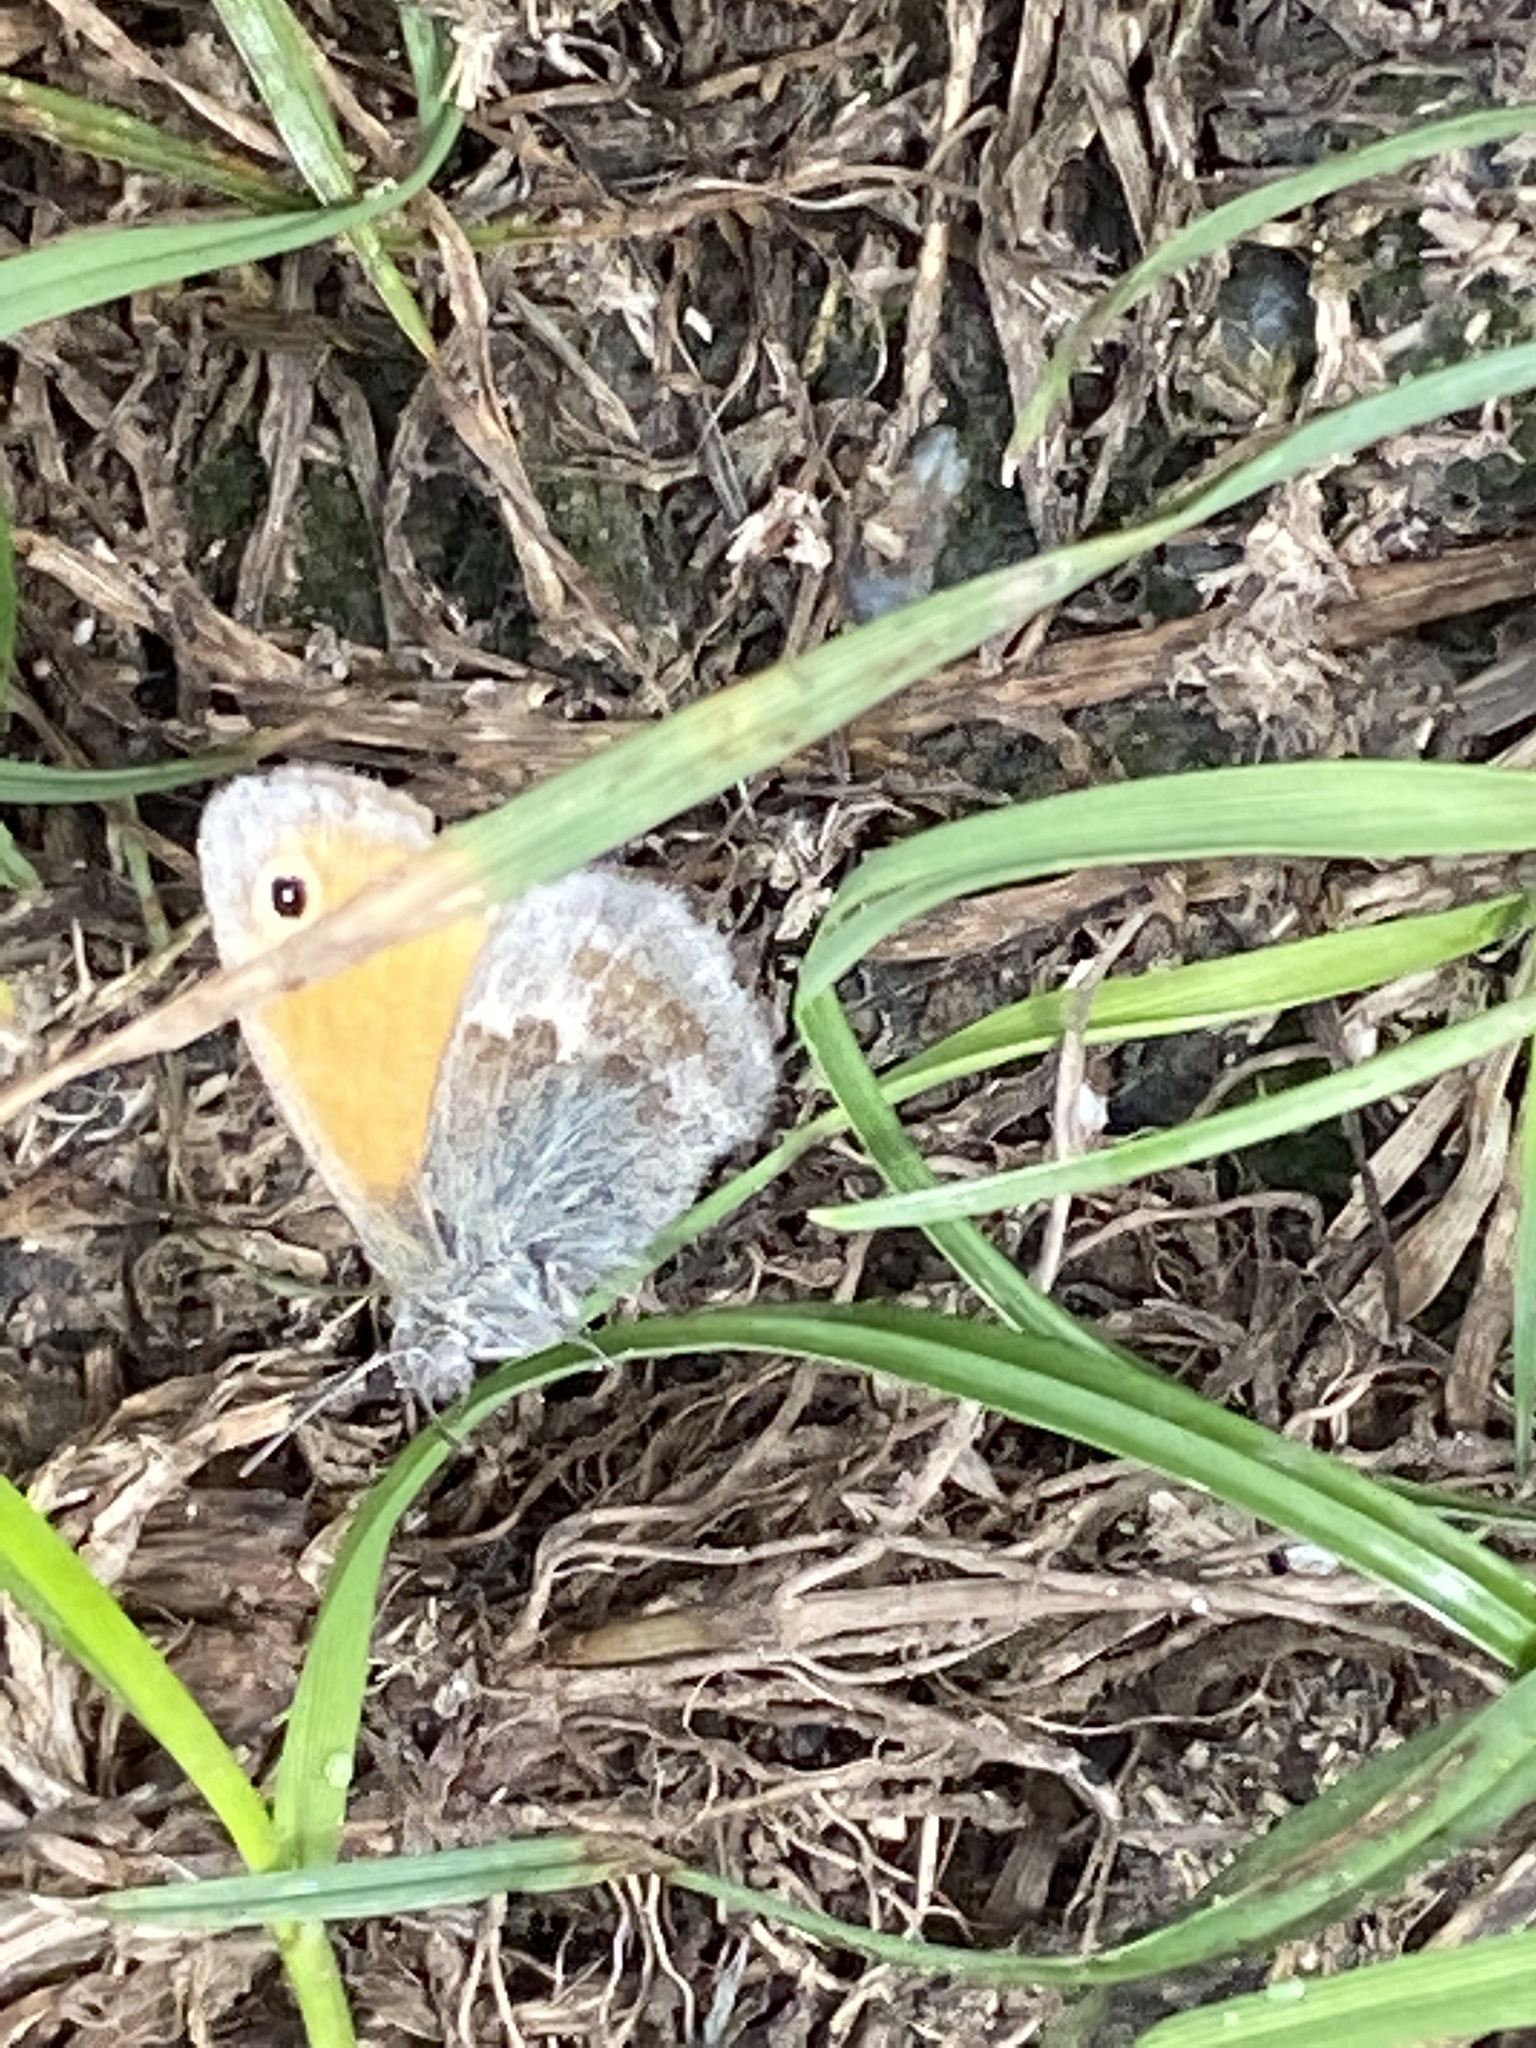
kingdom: Animalia
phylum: Arthropoda
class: Insecta
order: Lepidoptera
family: Nymphalidae
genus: Coenonympha
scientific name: Coenonympha pamphilus
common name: Small heath
